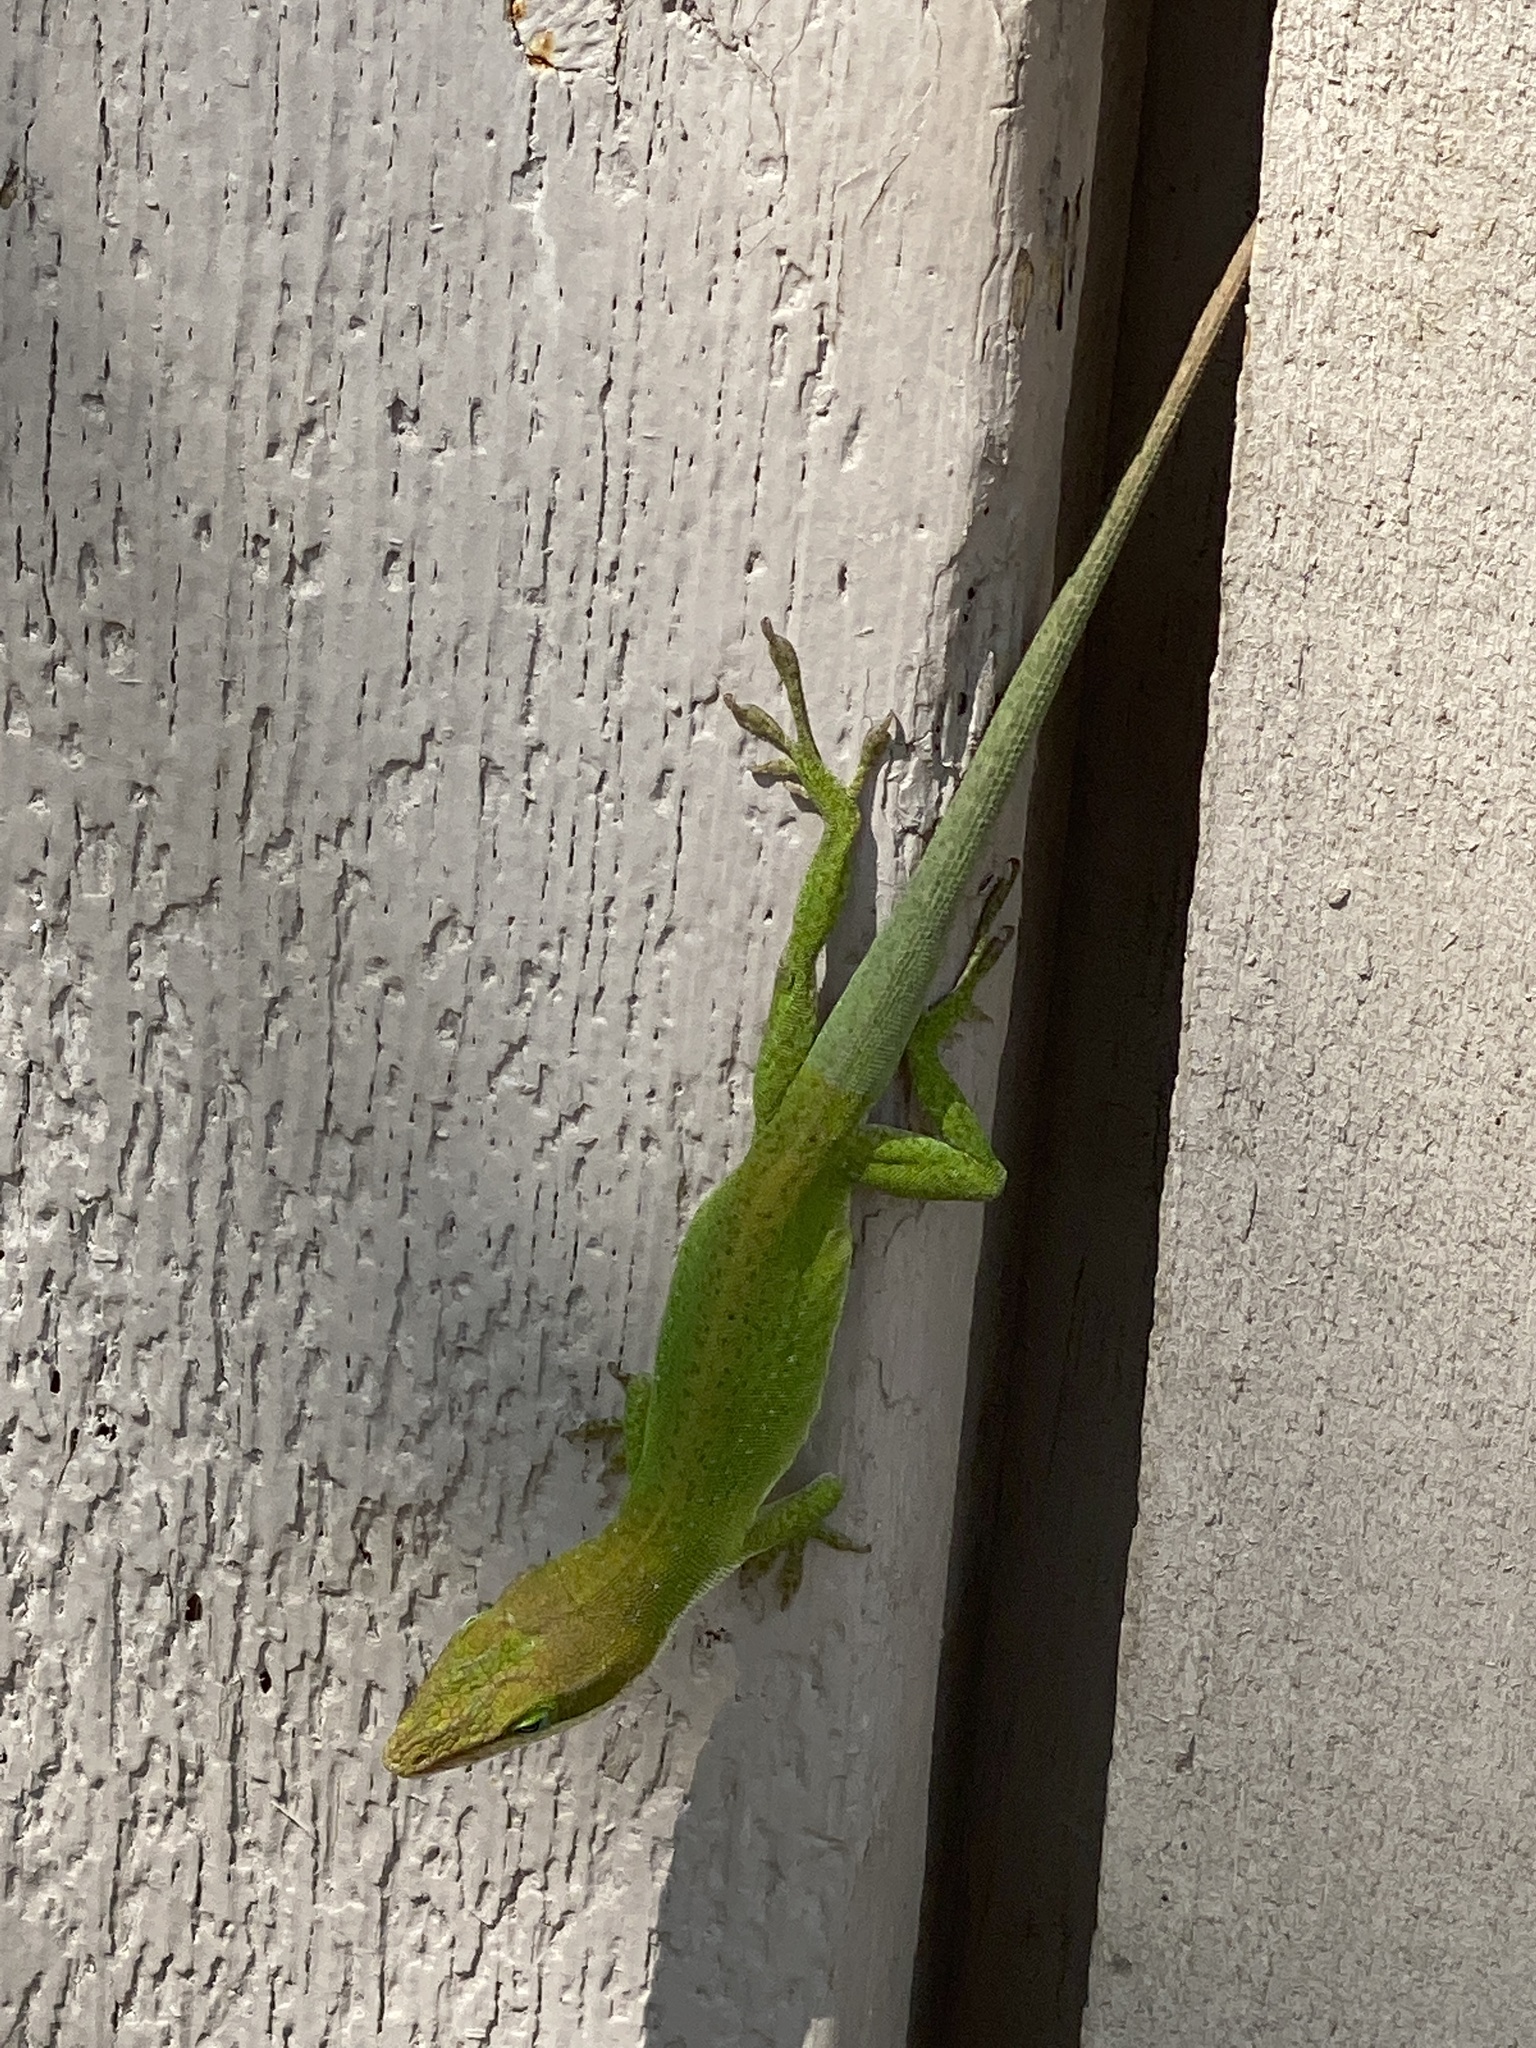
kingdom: Animalia
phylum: Chordata
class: Squamata
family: Dactyloidae
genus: Anolis
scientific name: Anolis carolinensis
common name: Green anole
